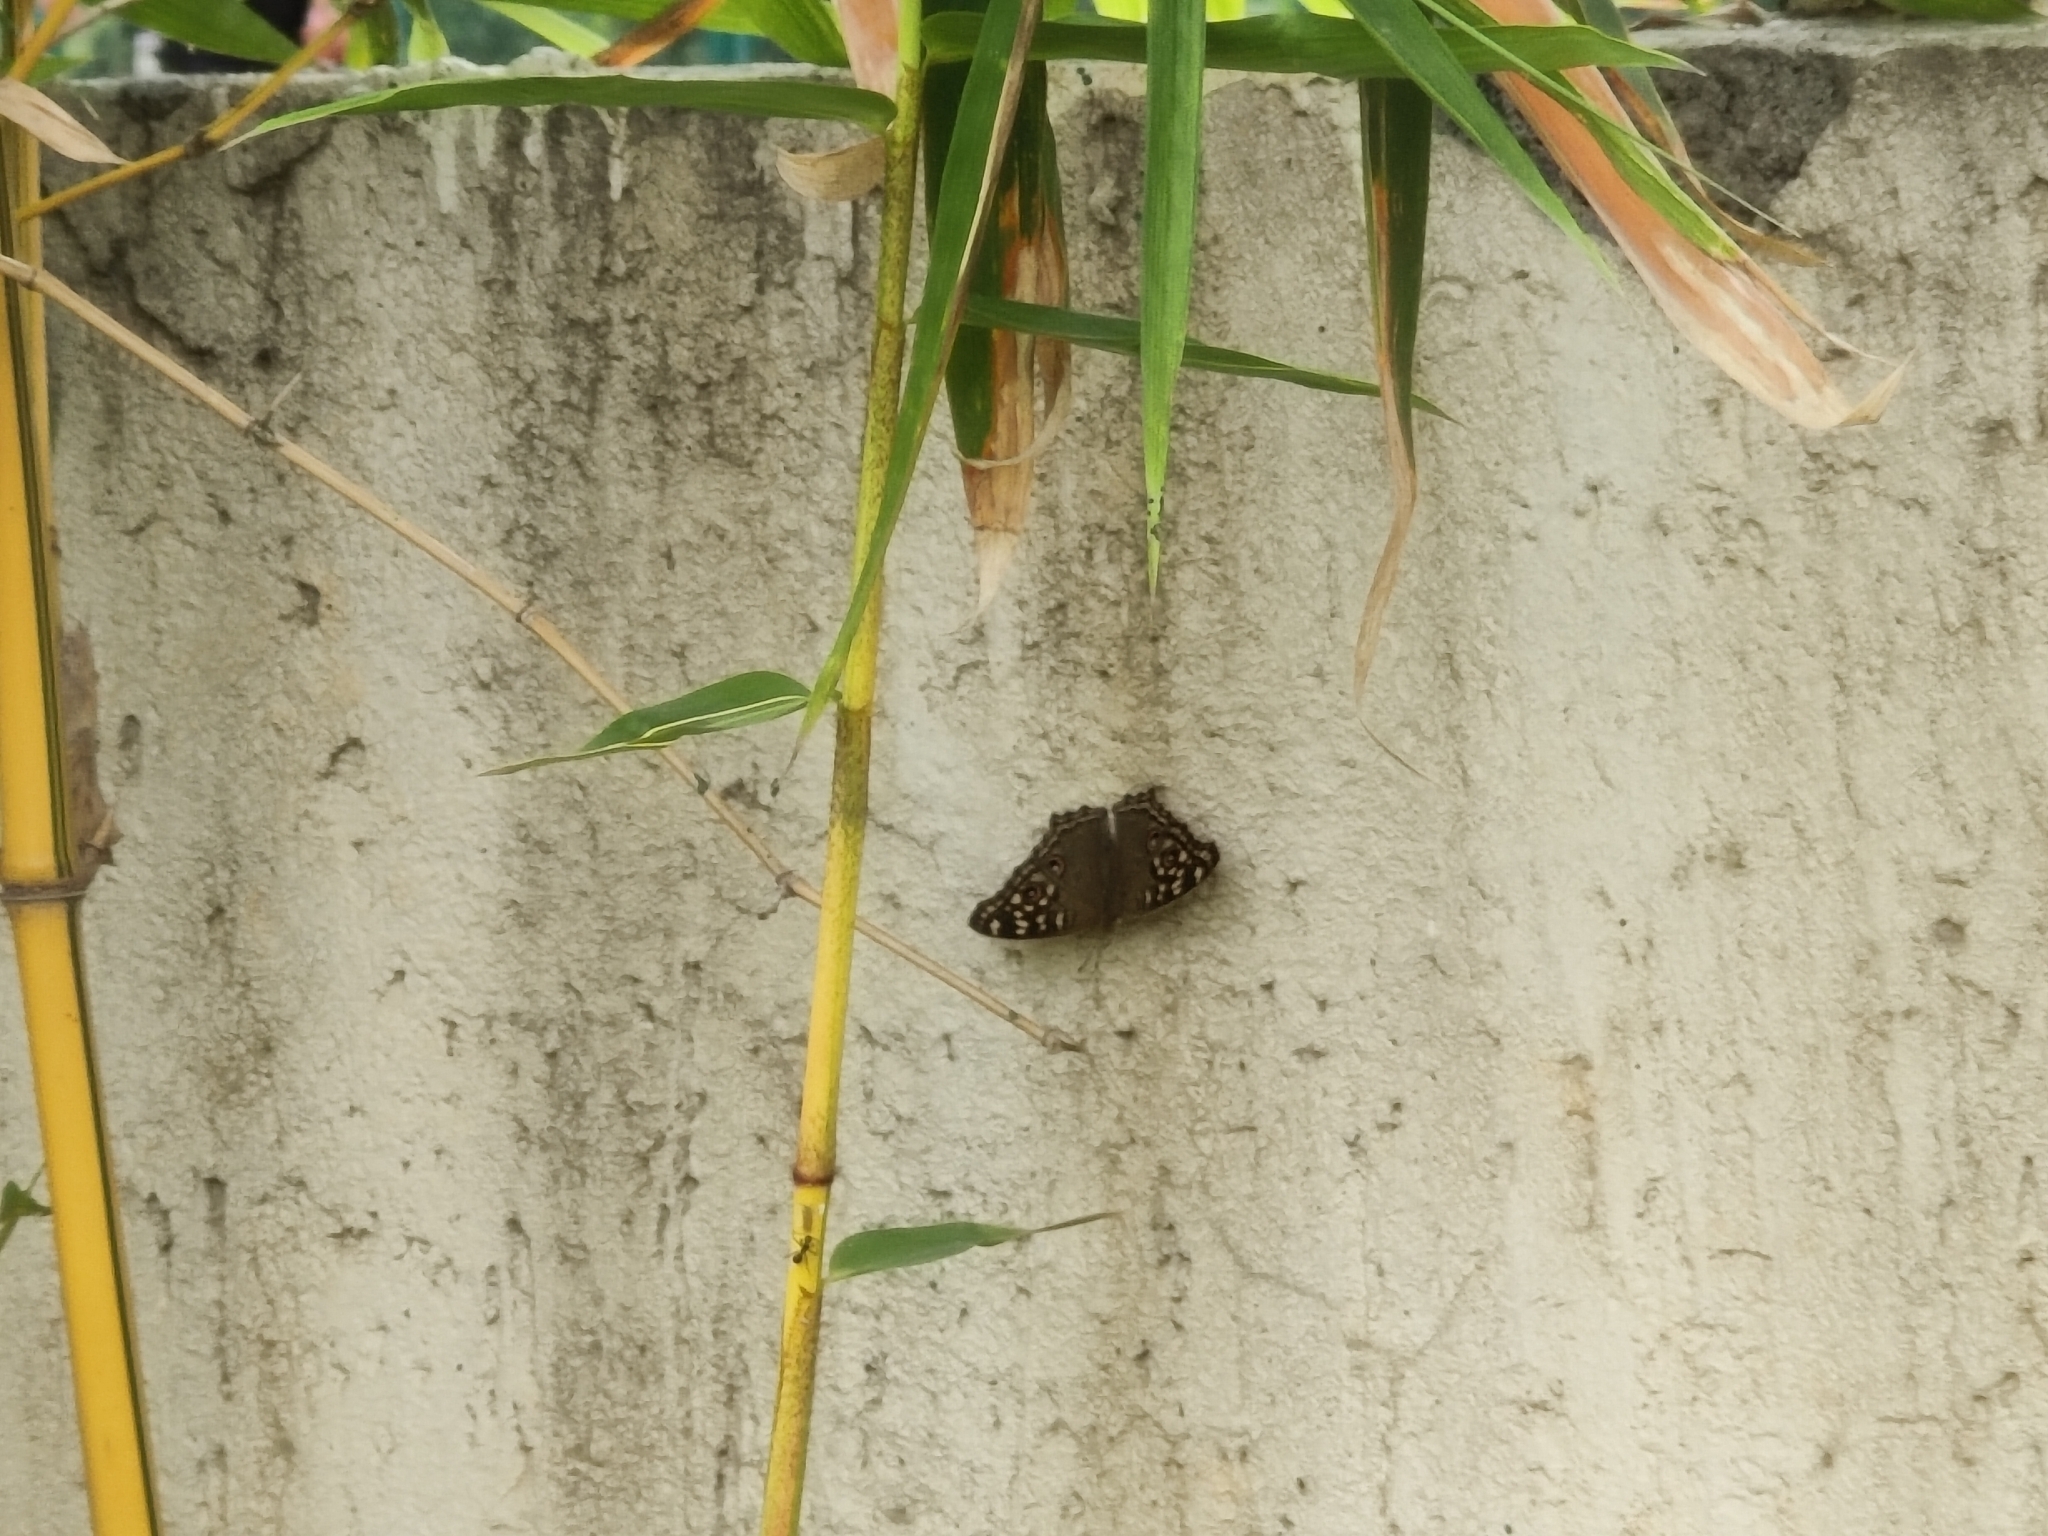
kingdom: Animalia
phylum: Arthropoda
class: Insecta
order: Lepidoptera
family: Nymphalidae
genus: Junonia
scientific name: Junonia lemonias
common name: Lemon pansy
